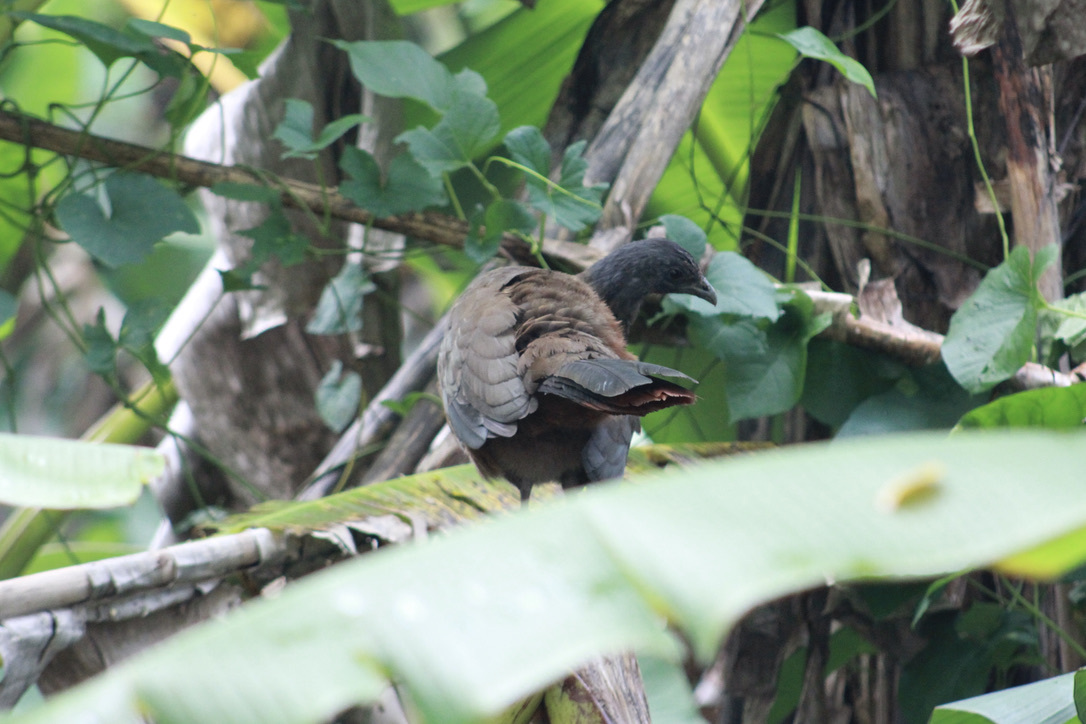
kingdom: Animalia
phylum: Chordata
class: Aves
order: Galliformes
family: Cracidae
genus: Ortalis
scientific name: Ortalis ruficauda
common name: Rufous-vented chachalaca
